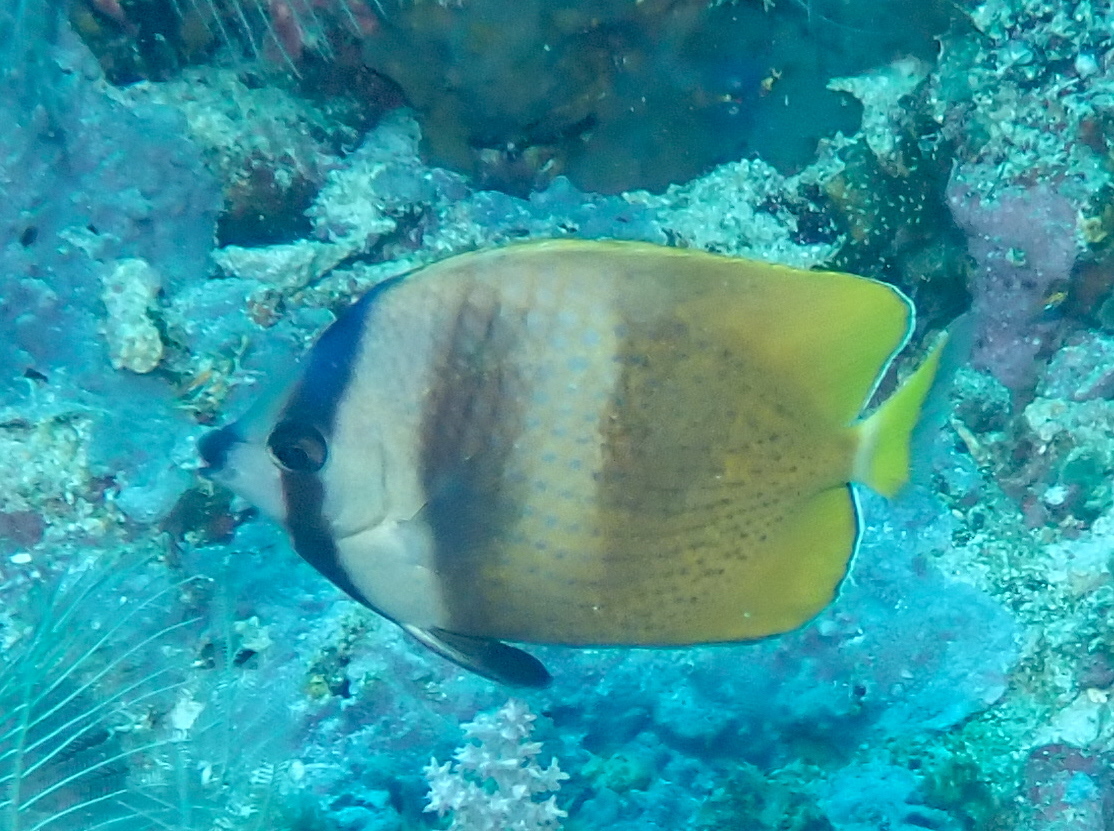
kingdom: Animalia
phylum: Chordata
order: Perciformes
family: Chaetodontidae
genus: Chaetodon
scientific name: Chaetodon kleinii
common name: Klein's butterflyfish
